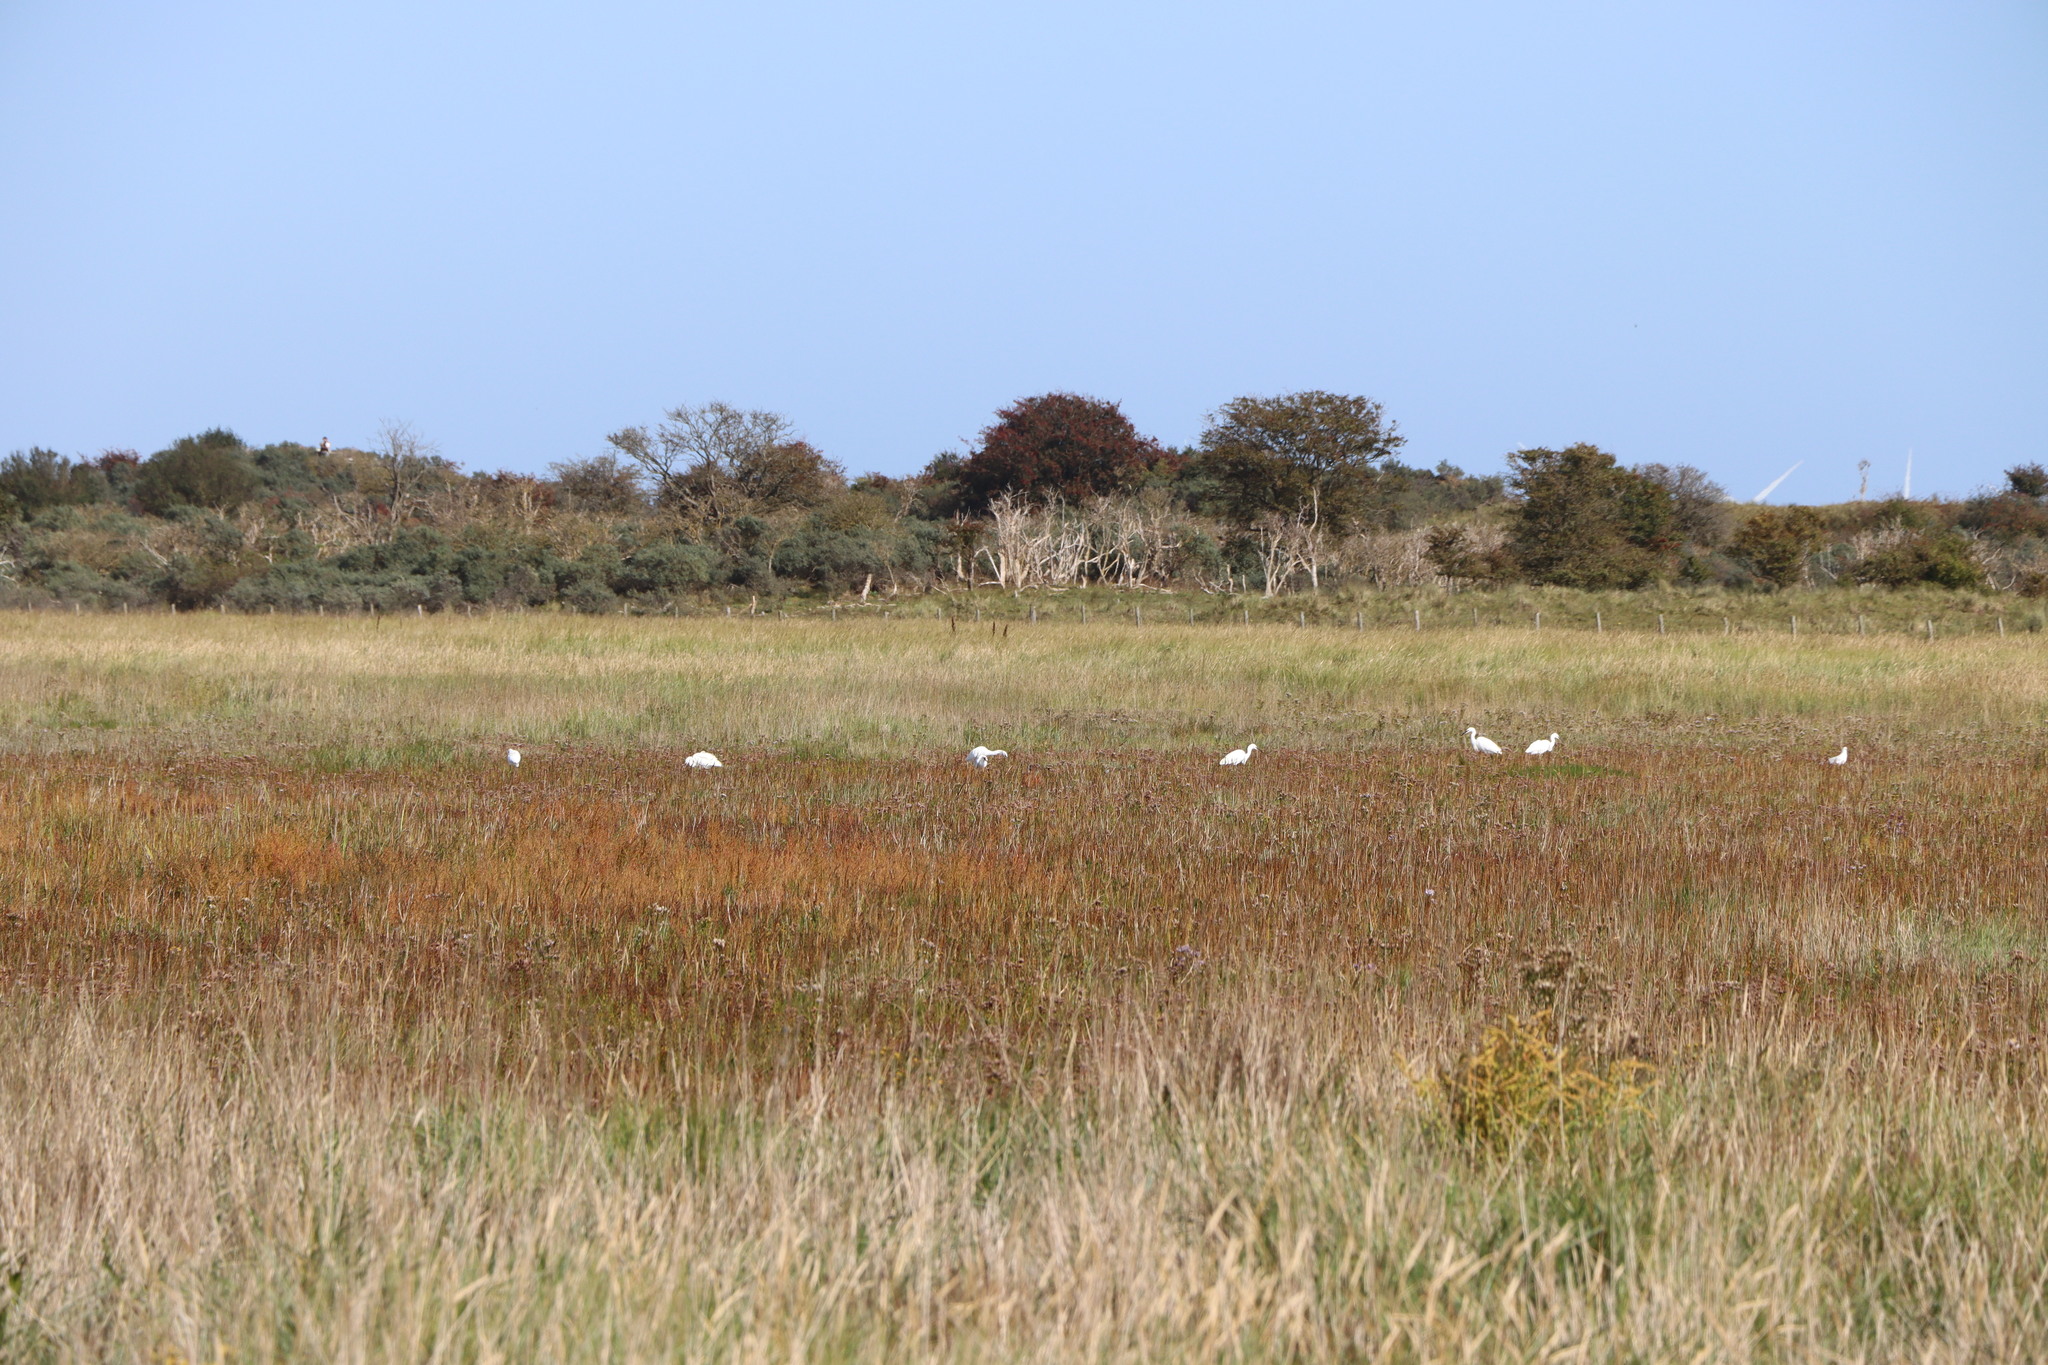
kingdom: Animalia
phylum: Chordata
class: Aves
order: Pelecaniformes
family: Ardeidae
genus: Egretta
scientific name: Egretta garzetta
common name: Little egret
